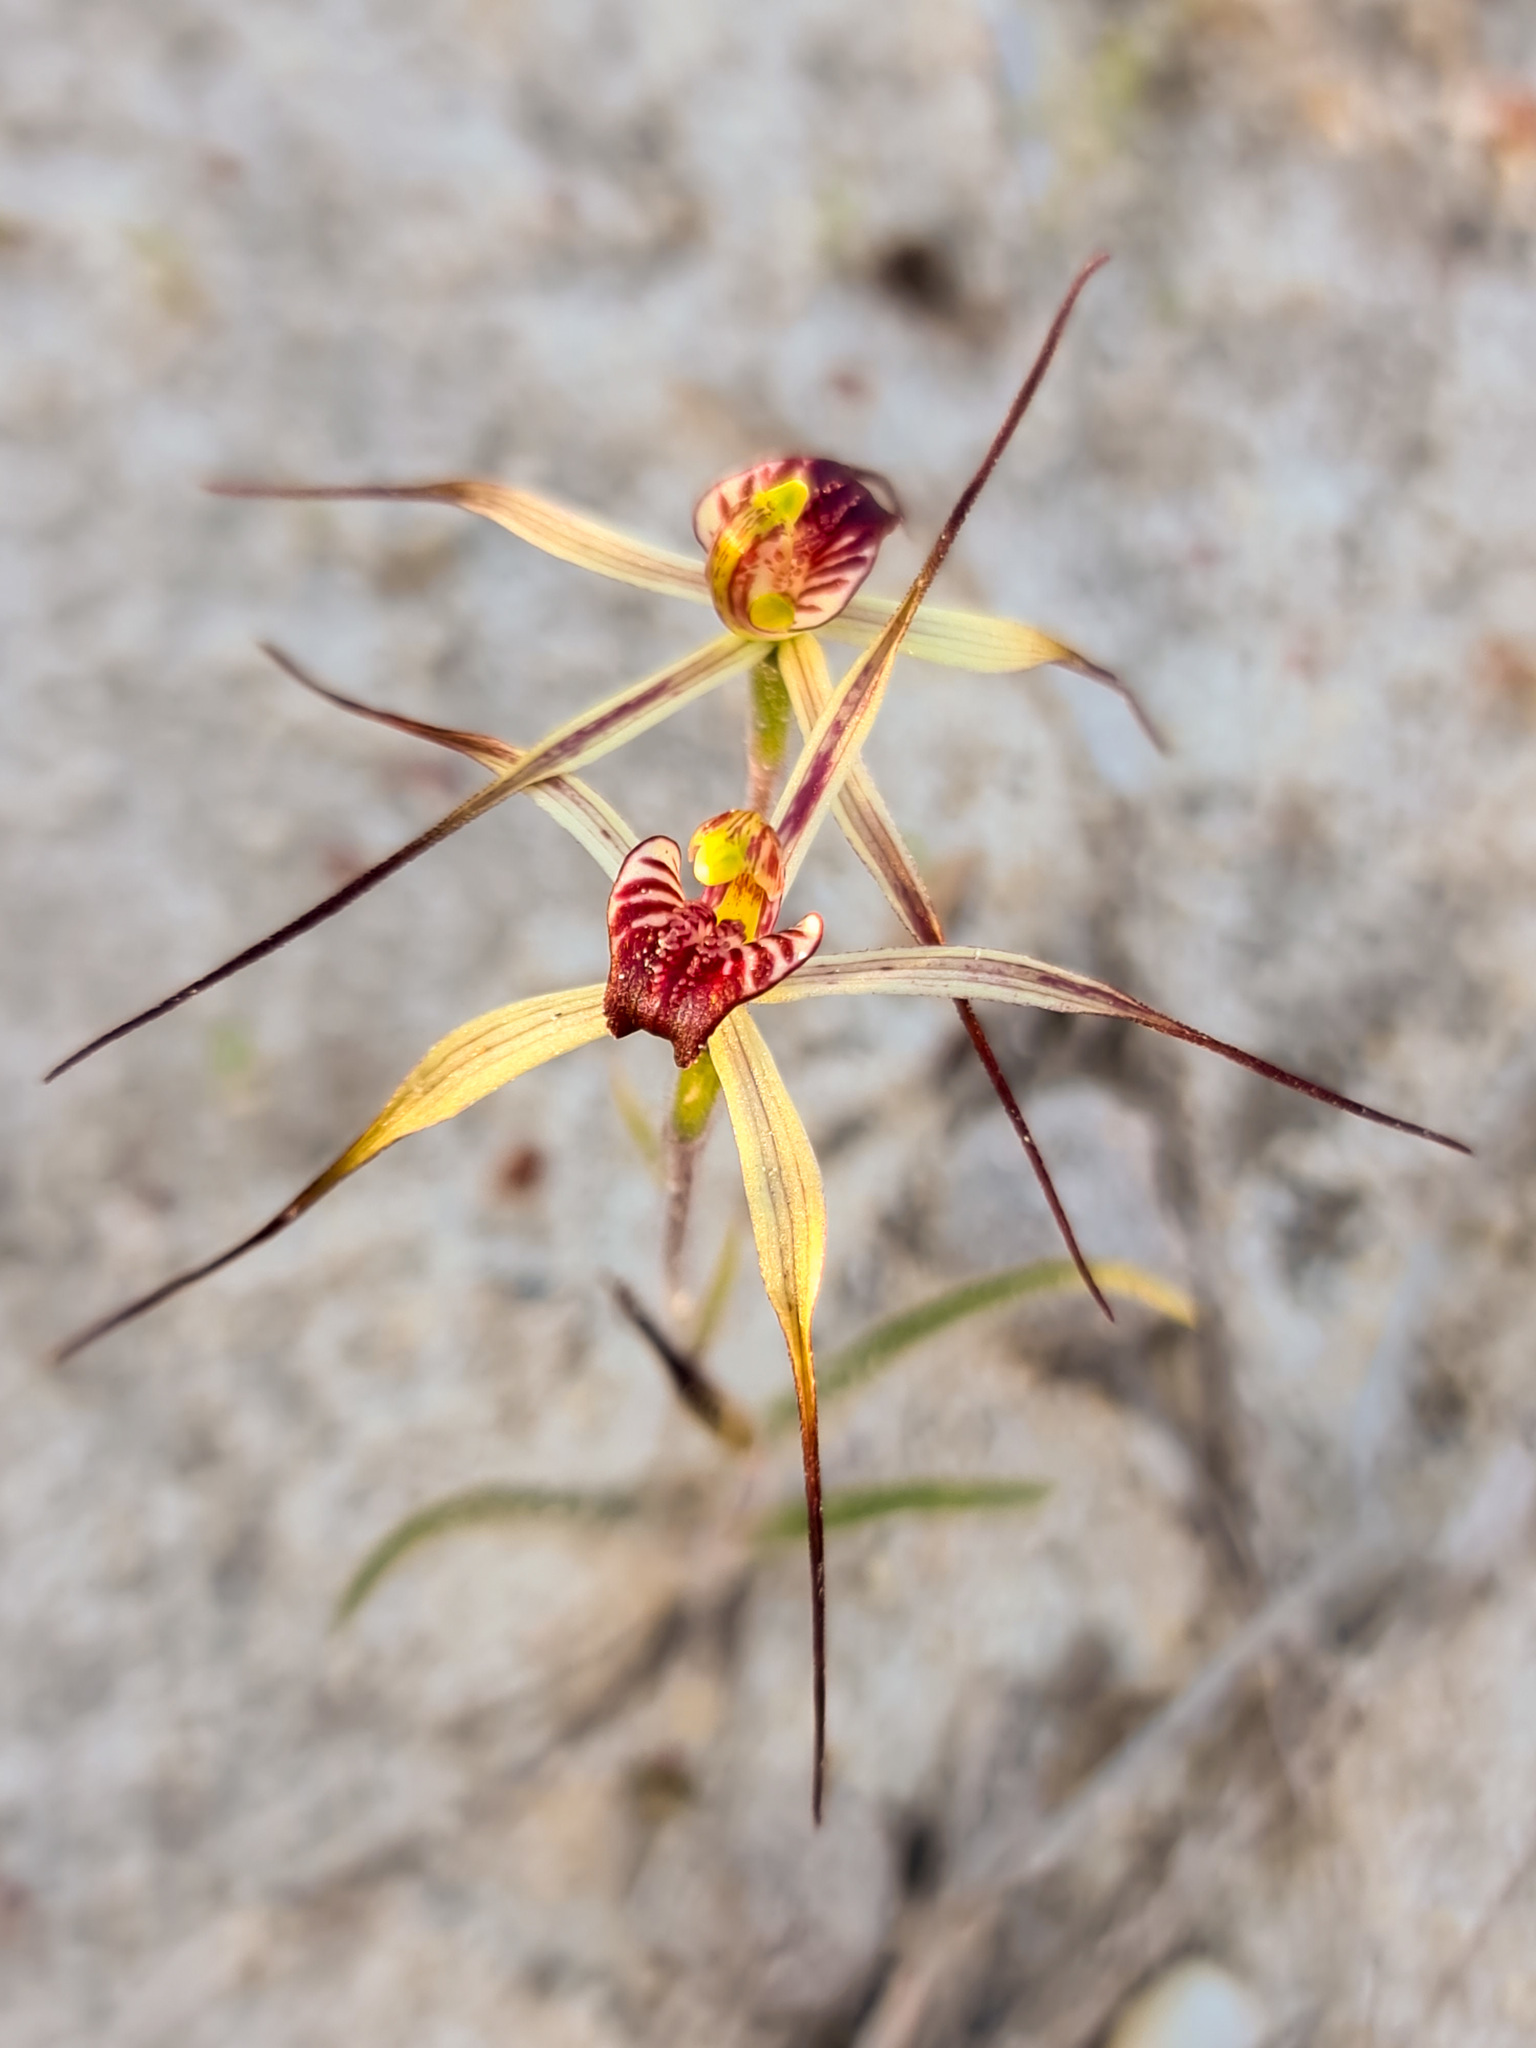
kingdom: Plantae
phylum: Tracheophyta
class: Liliopsida
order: Asparagales
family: Orchidaceae
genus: Caladenia
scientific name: Caladenia radialis
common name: Drooping spider orchid
